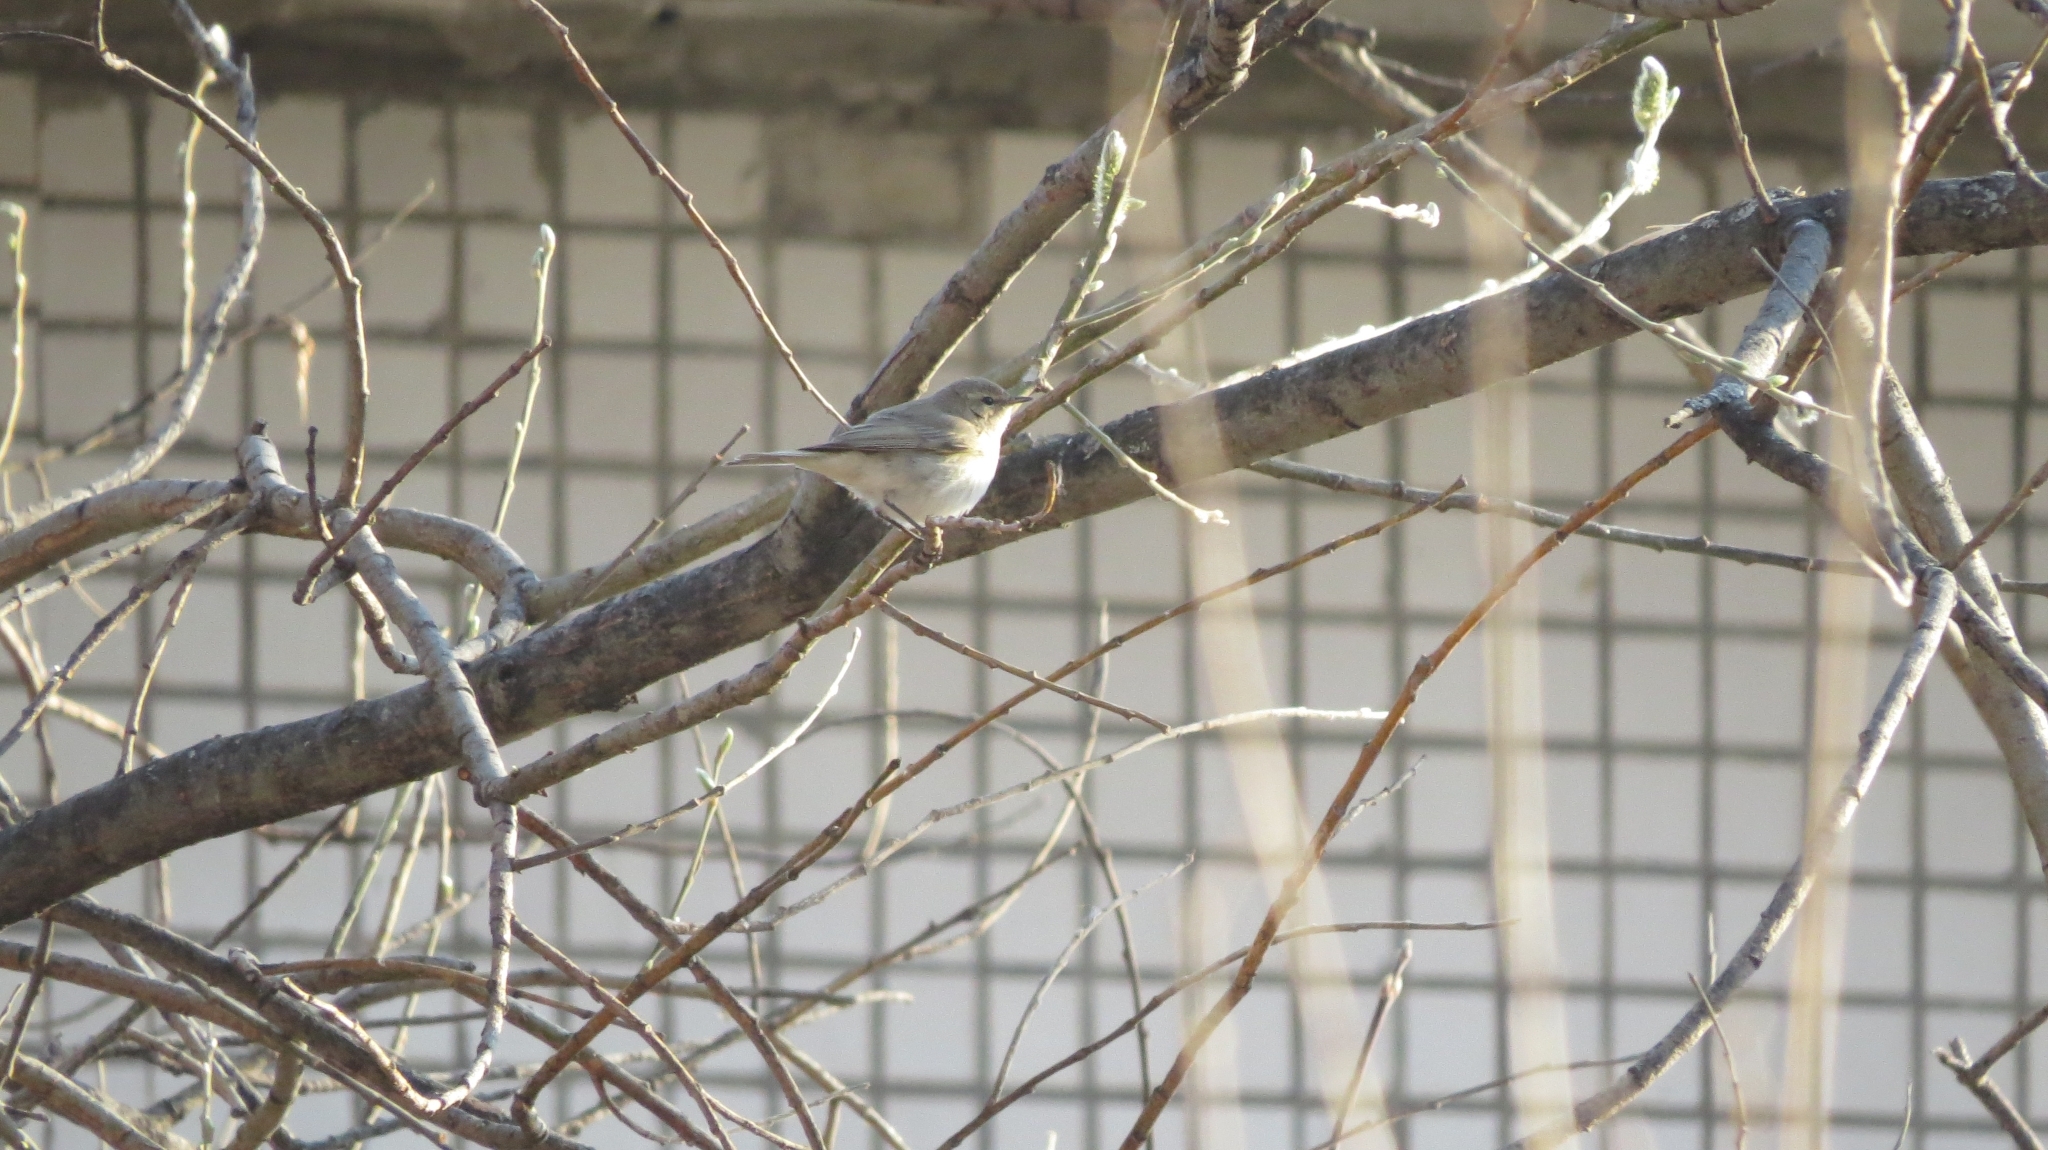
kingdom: Animalia
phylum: Chordata
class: Aves
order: Passeriformes
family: Phylloscopidae
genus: Phylloscopus
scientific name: Phylloscopus collybita
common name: Common chiffchaff
